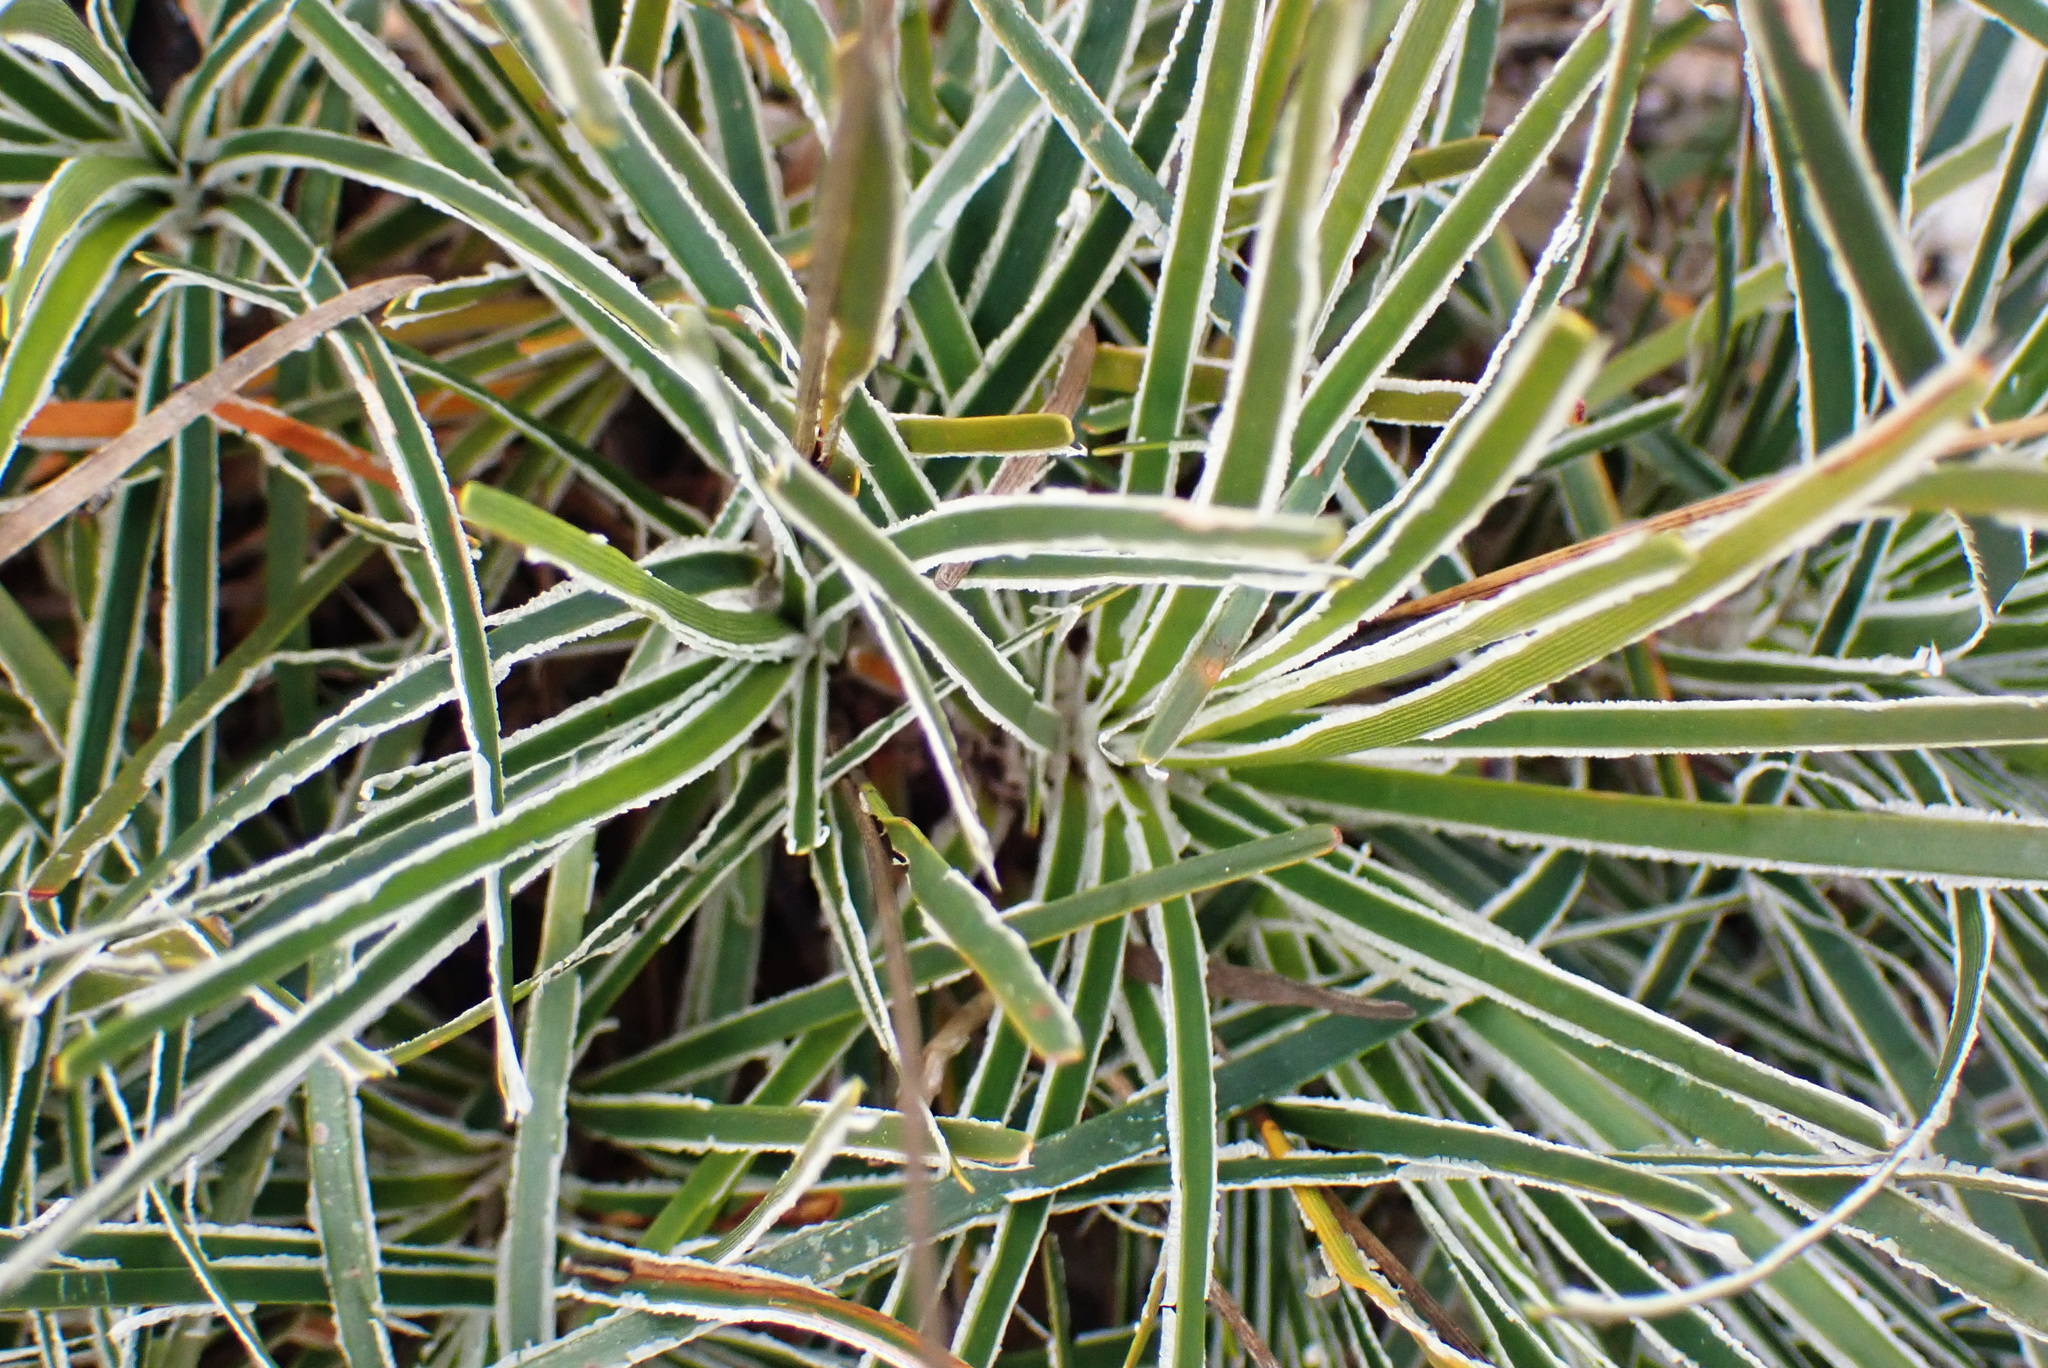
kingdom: Plantae
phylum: Tracheophyta
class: Liliopsida
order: Poales
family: Cyperaceae
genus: Ficinia
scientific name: Ficinia truncata
